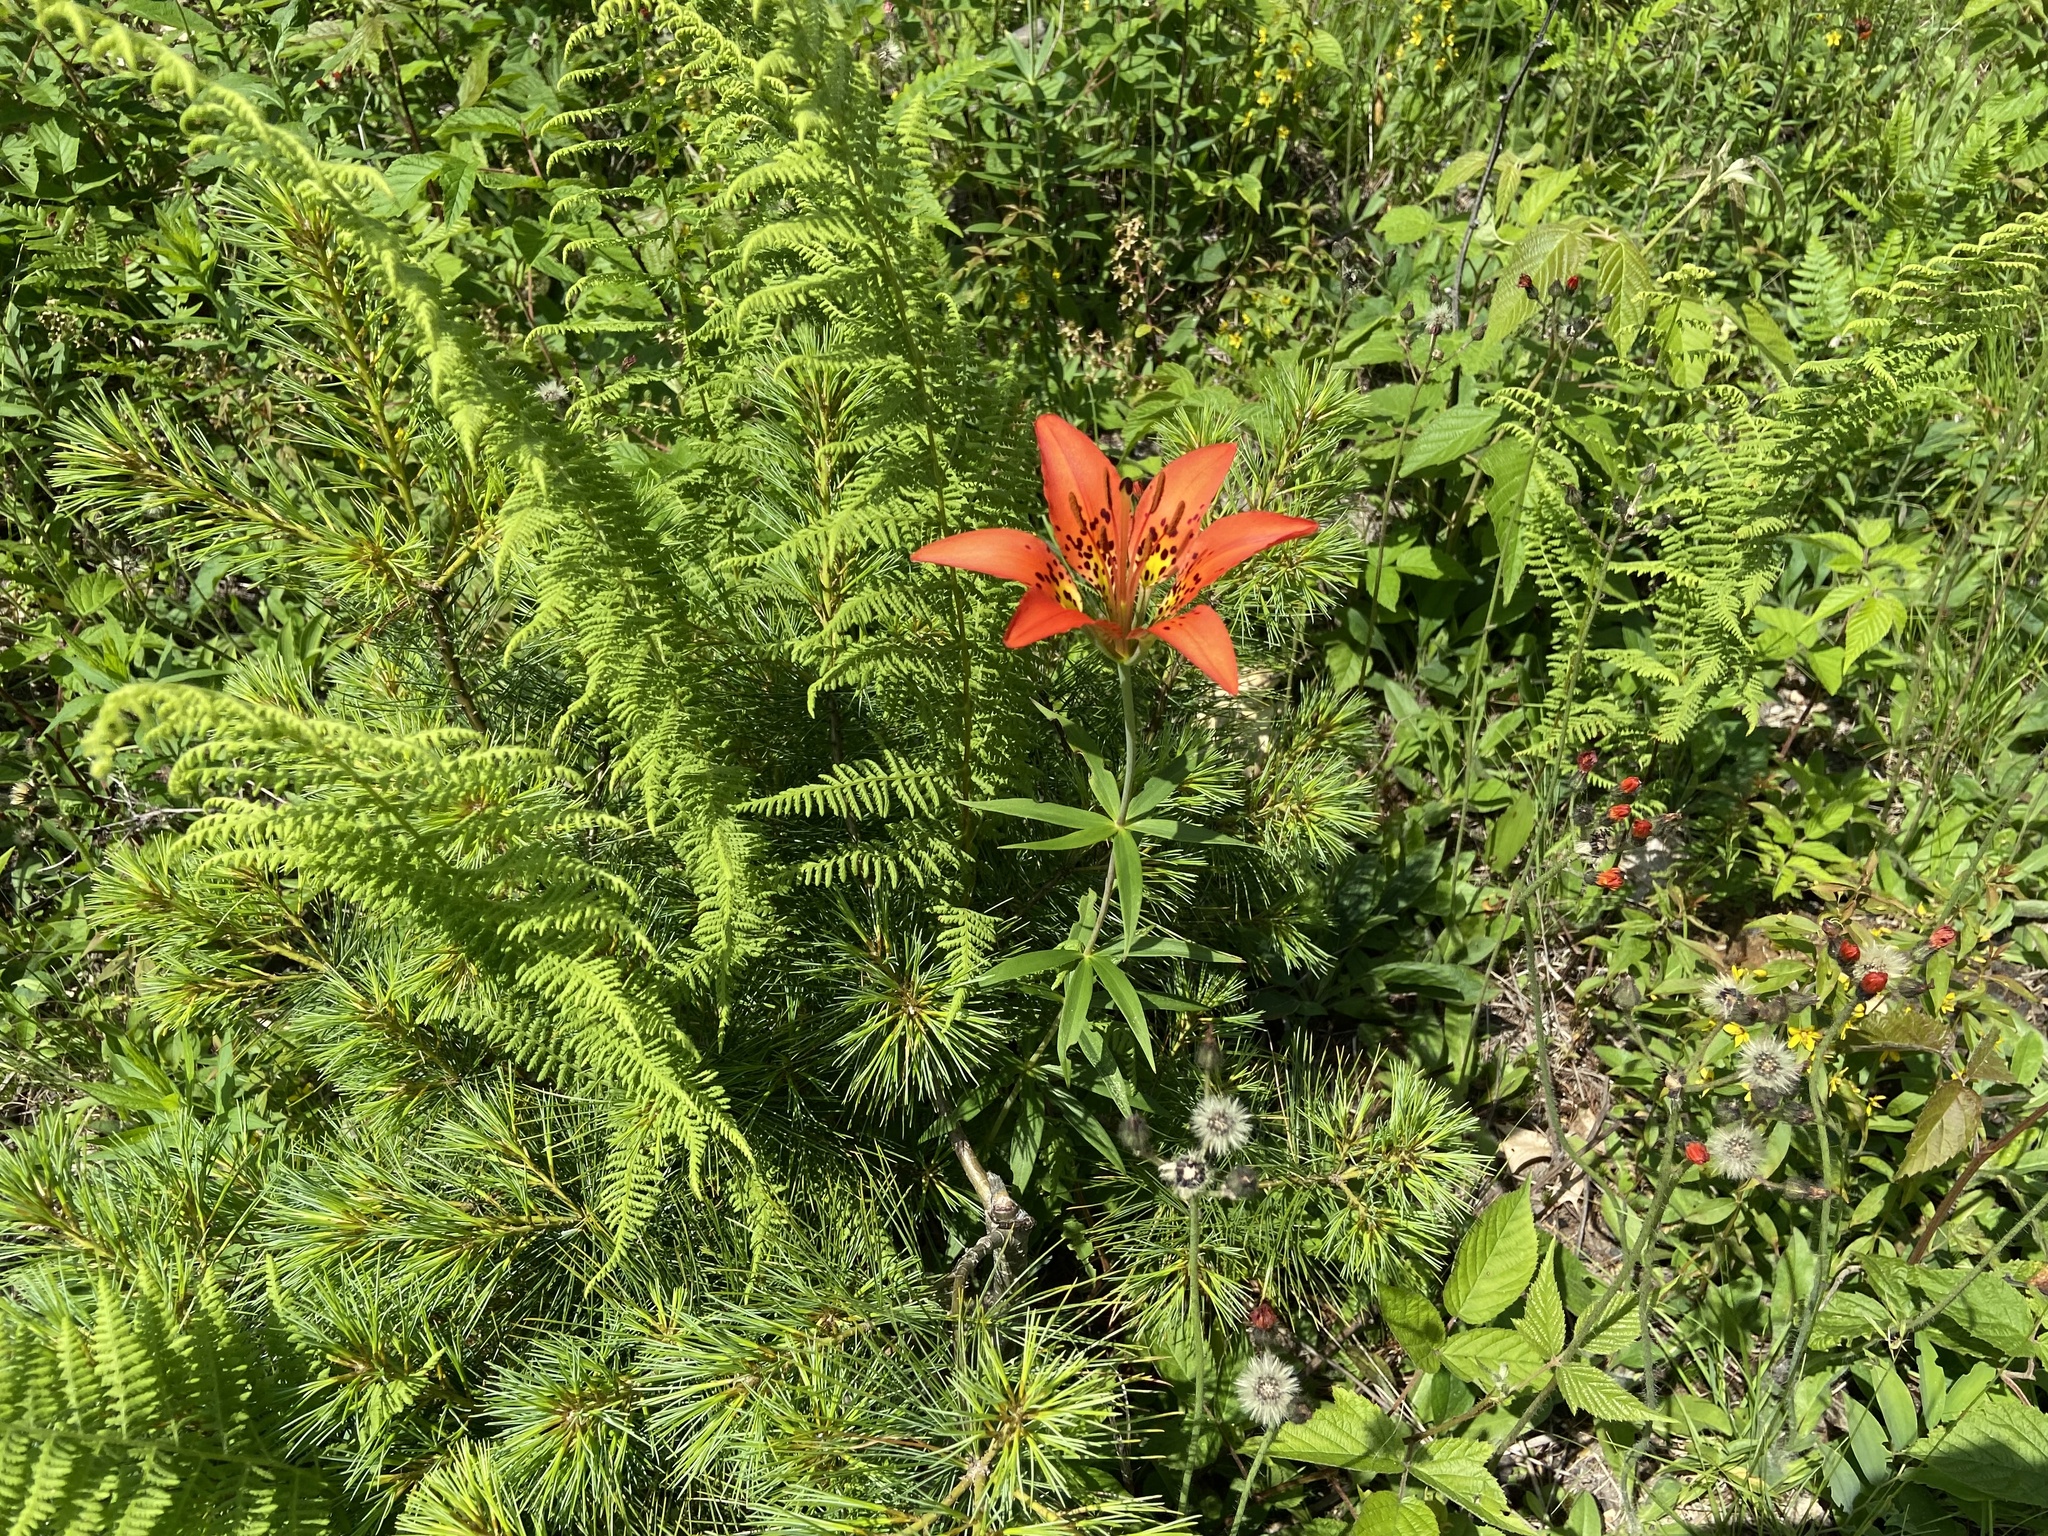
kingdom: Plantae
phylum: Tracheophyta
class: Liliopsida
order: Liliales
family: Liliaceae
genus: Lilium
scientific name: Lilium philadelphicum
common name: Red lily
